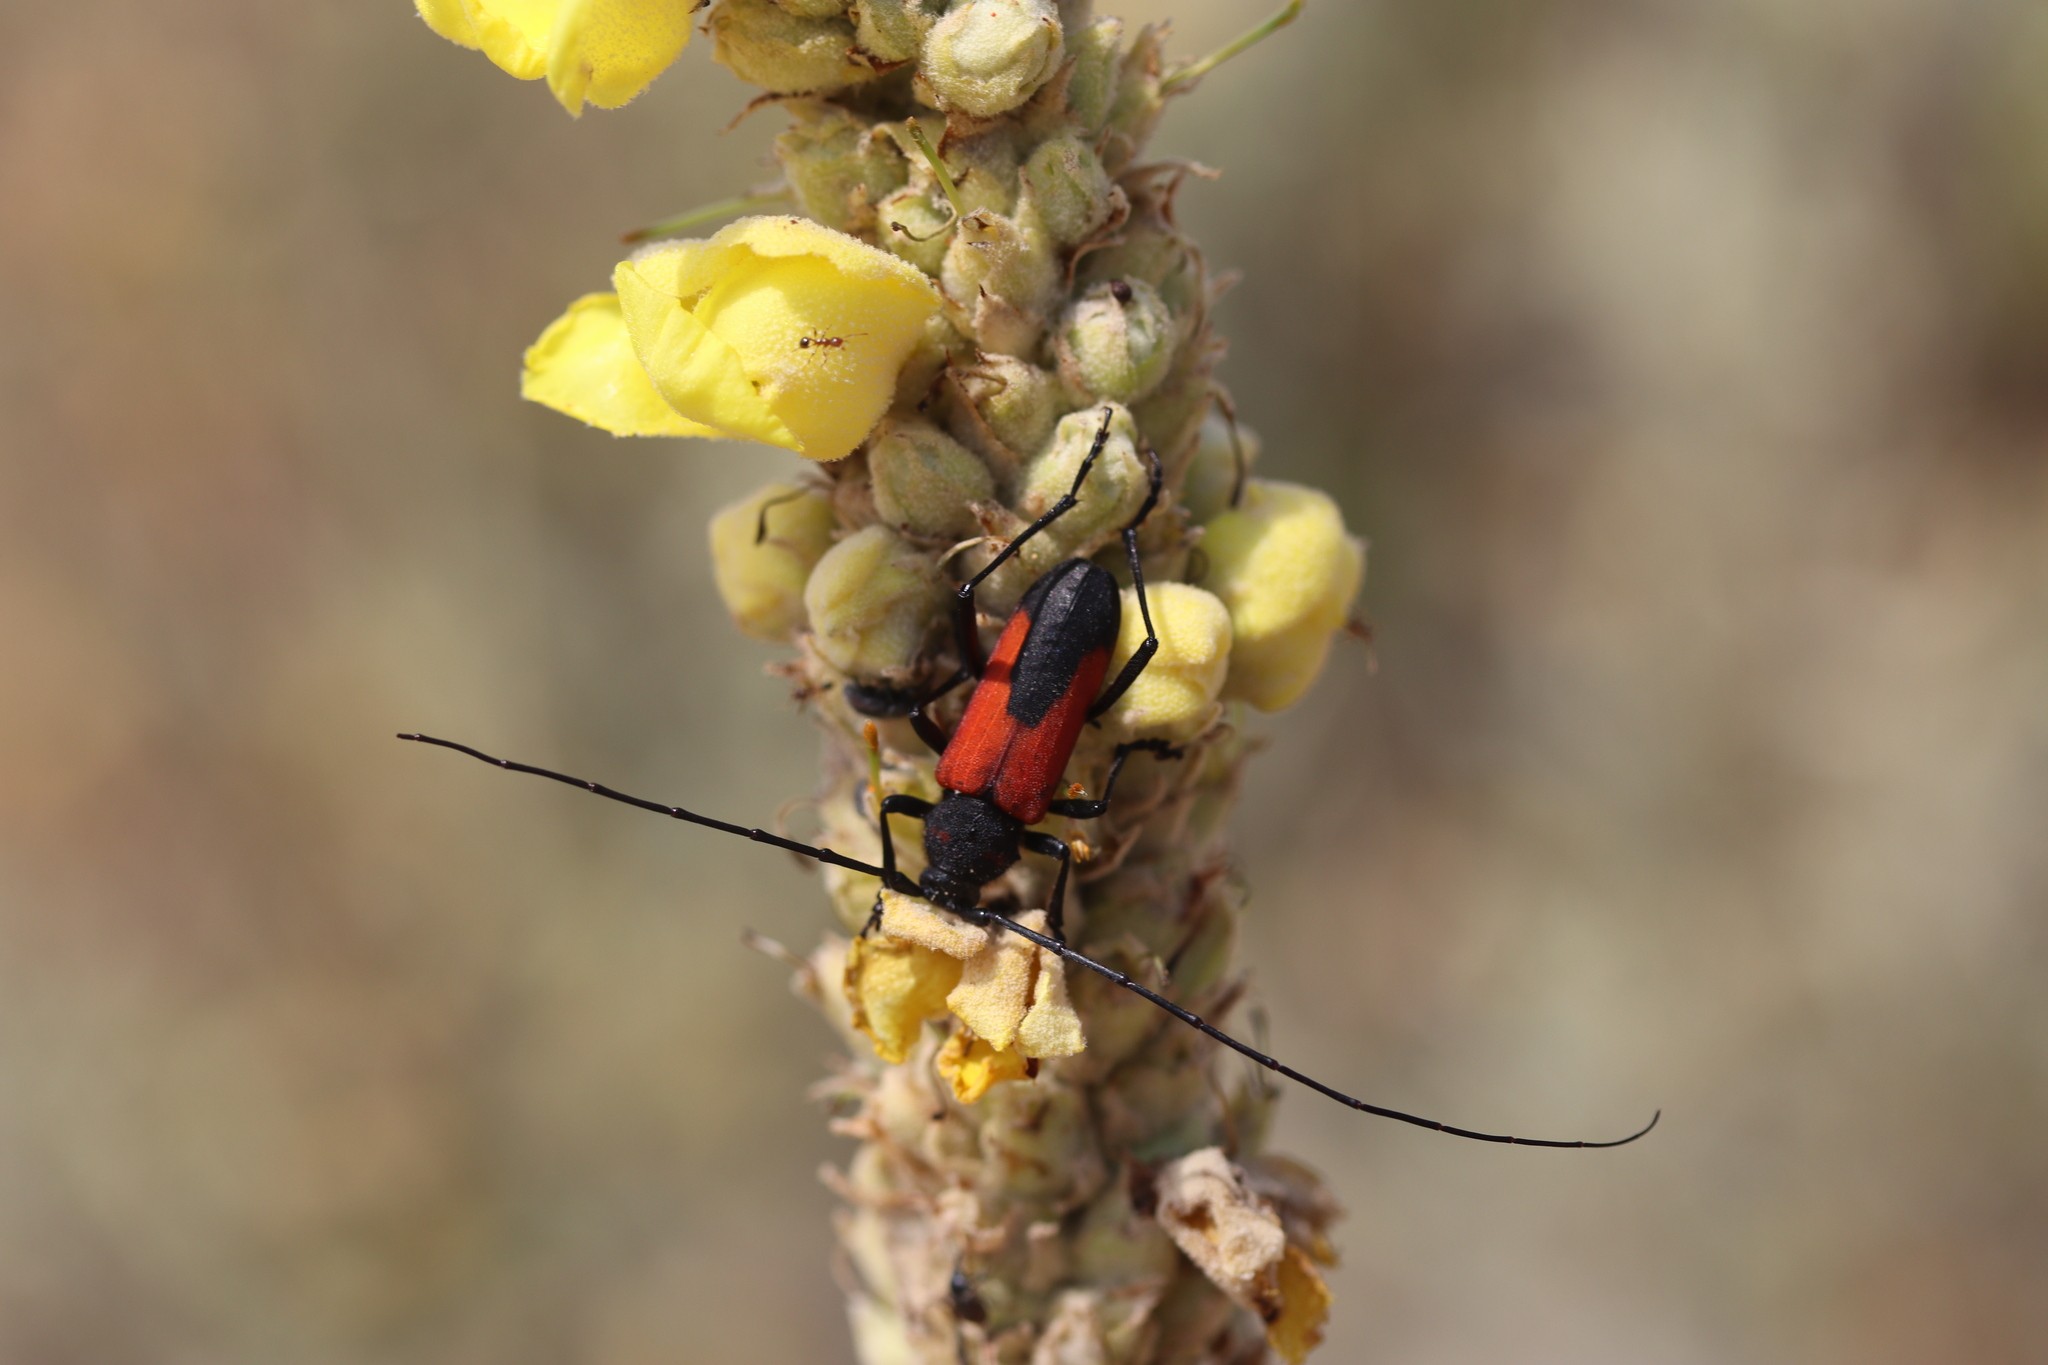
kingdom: Animalia
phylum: Arthropoda
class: Insecta
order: Coleoptera
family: Cerambycidae
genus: Purpuricenus
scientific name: Purpuricenus budensis
